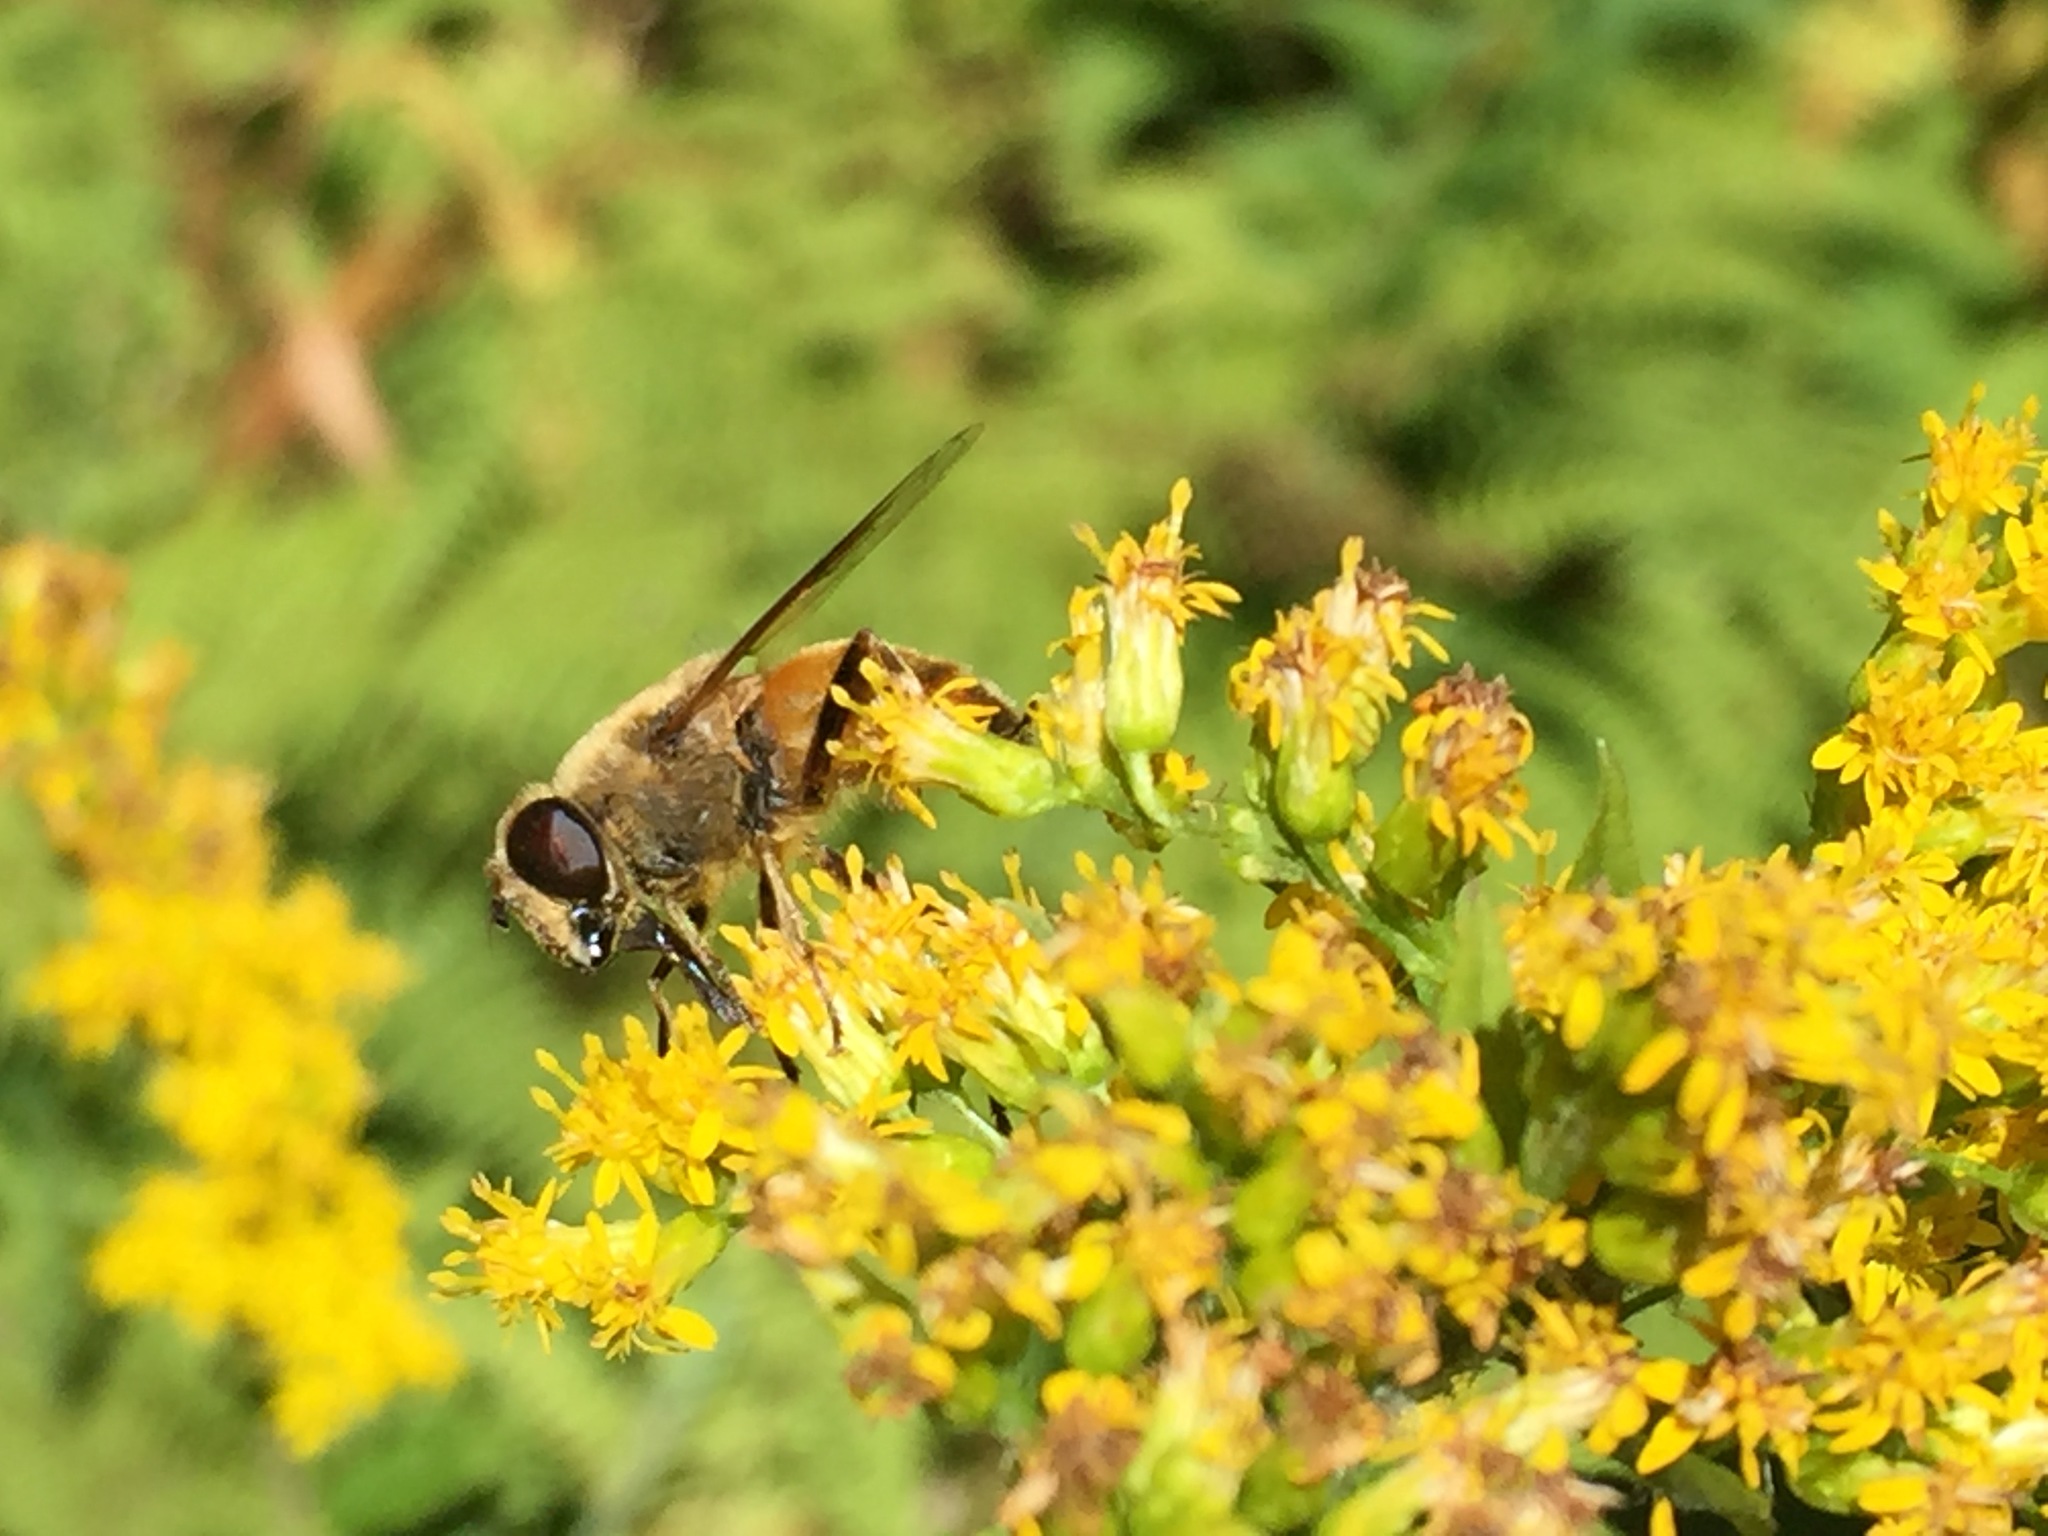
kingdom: Animalia
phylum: Arthropoda
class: Insecta
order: Diptera
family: Syrphidae
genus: Eristalis
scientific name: Eristalis tenax
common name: Drone fly
